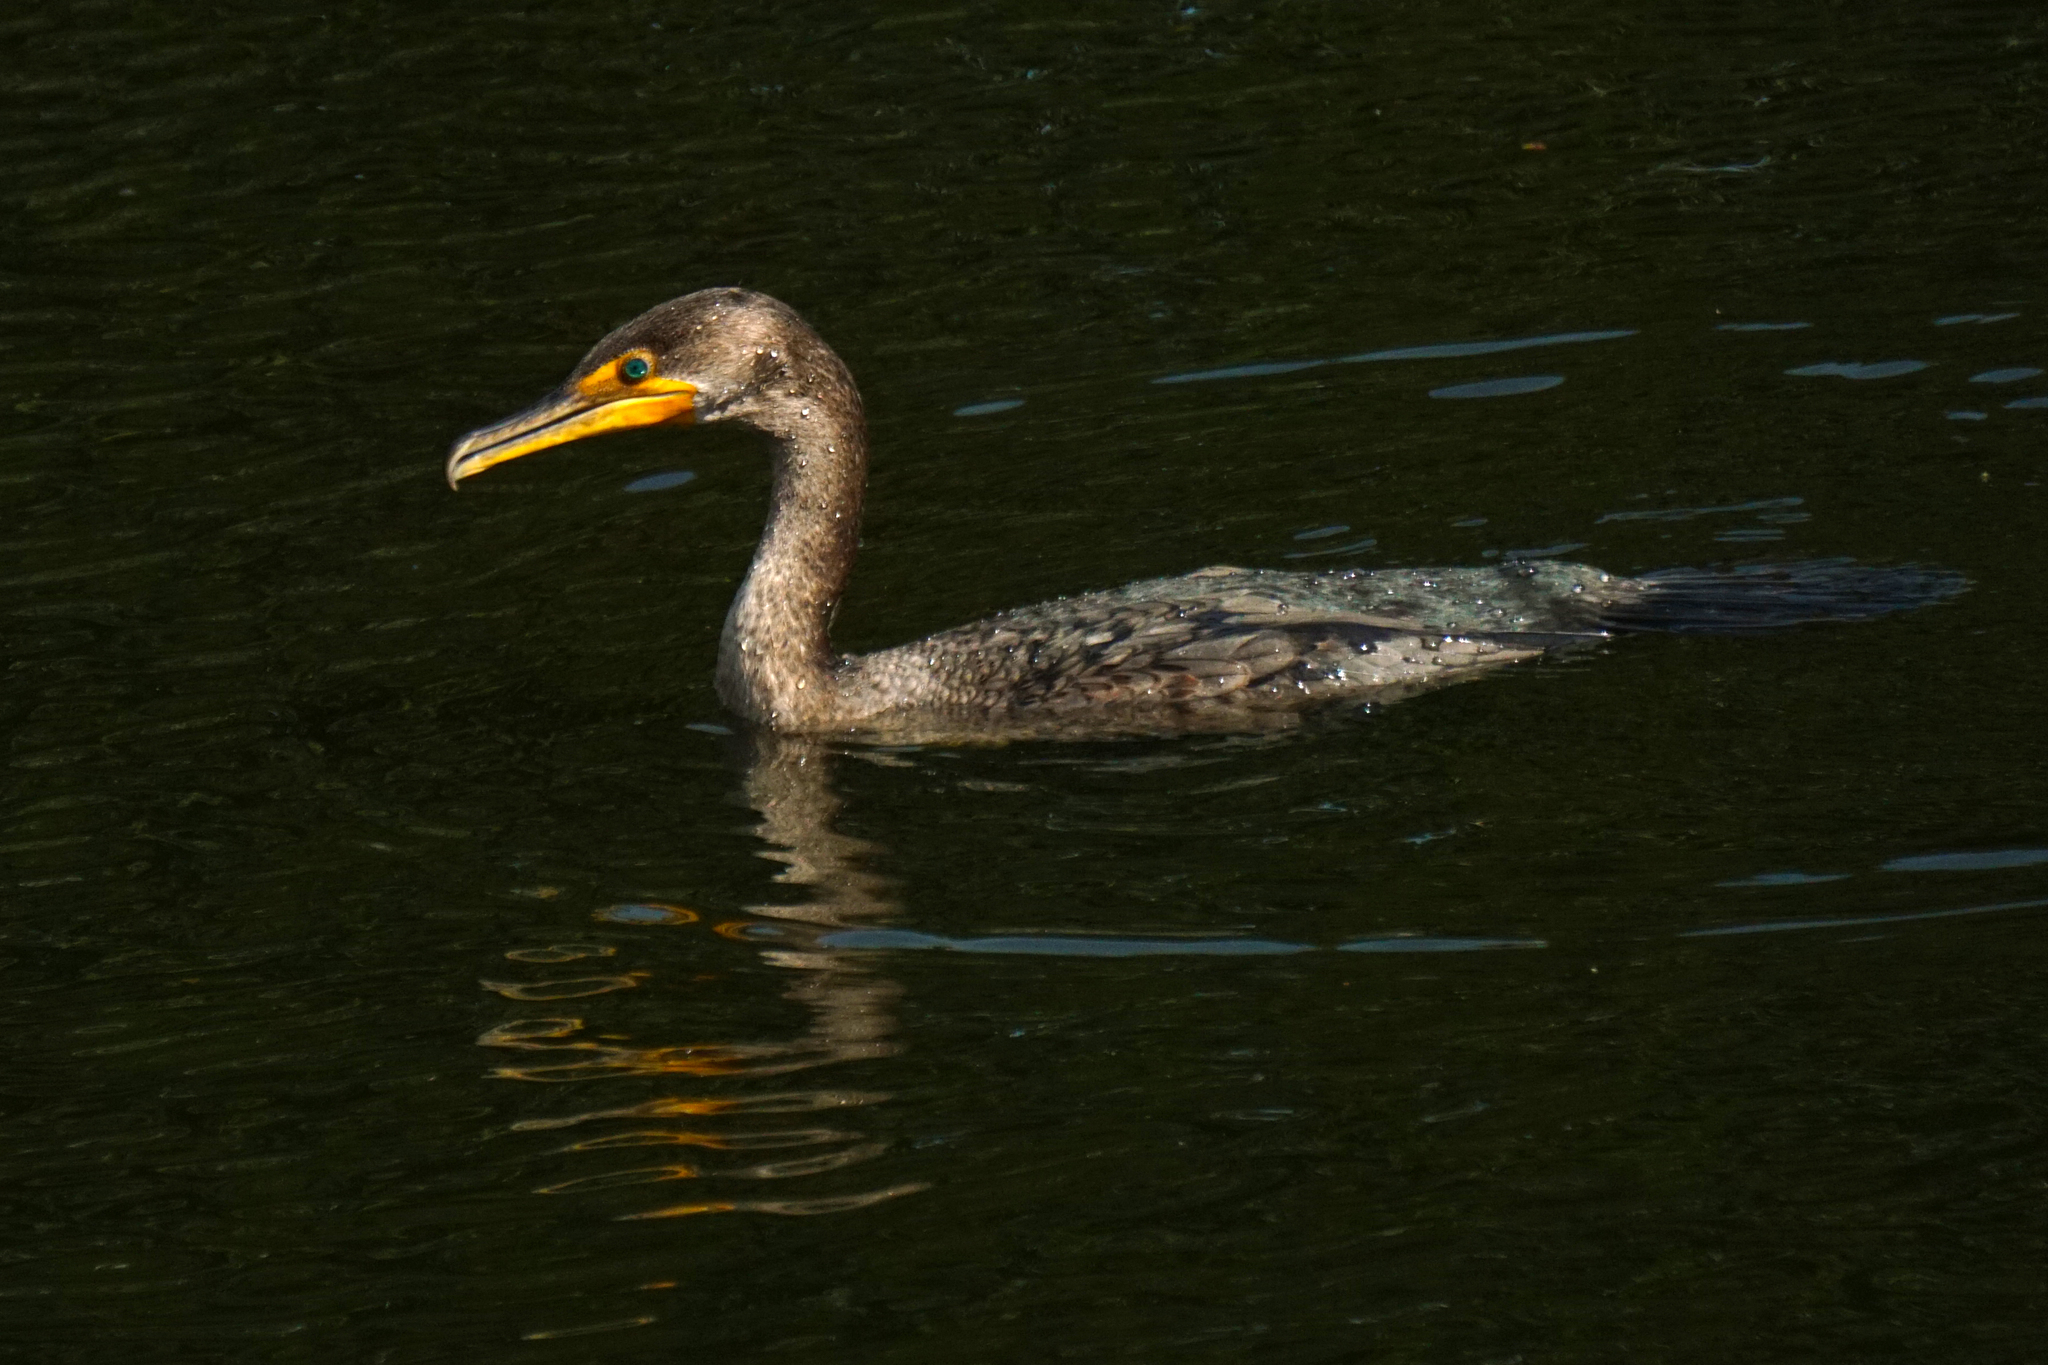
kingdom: Animalia
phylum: Chordata
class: Aves
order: Suliformes
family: Phalacrocoracidae
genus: Phalacrocorax
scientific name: Phalacrocorax auritus
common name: Double-crested cormorant
